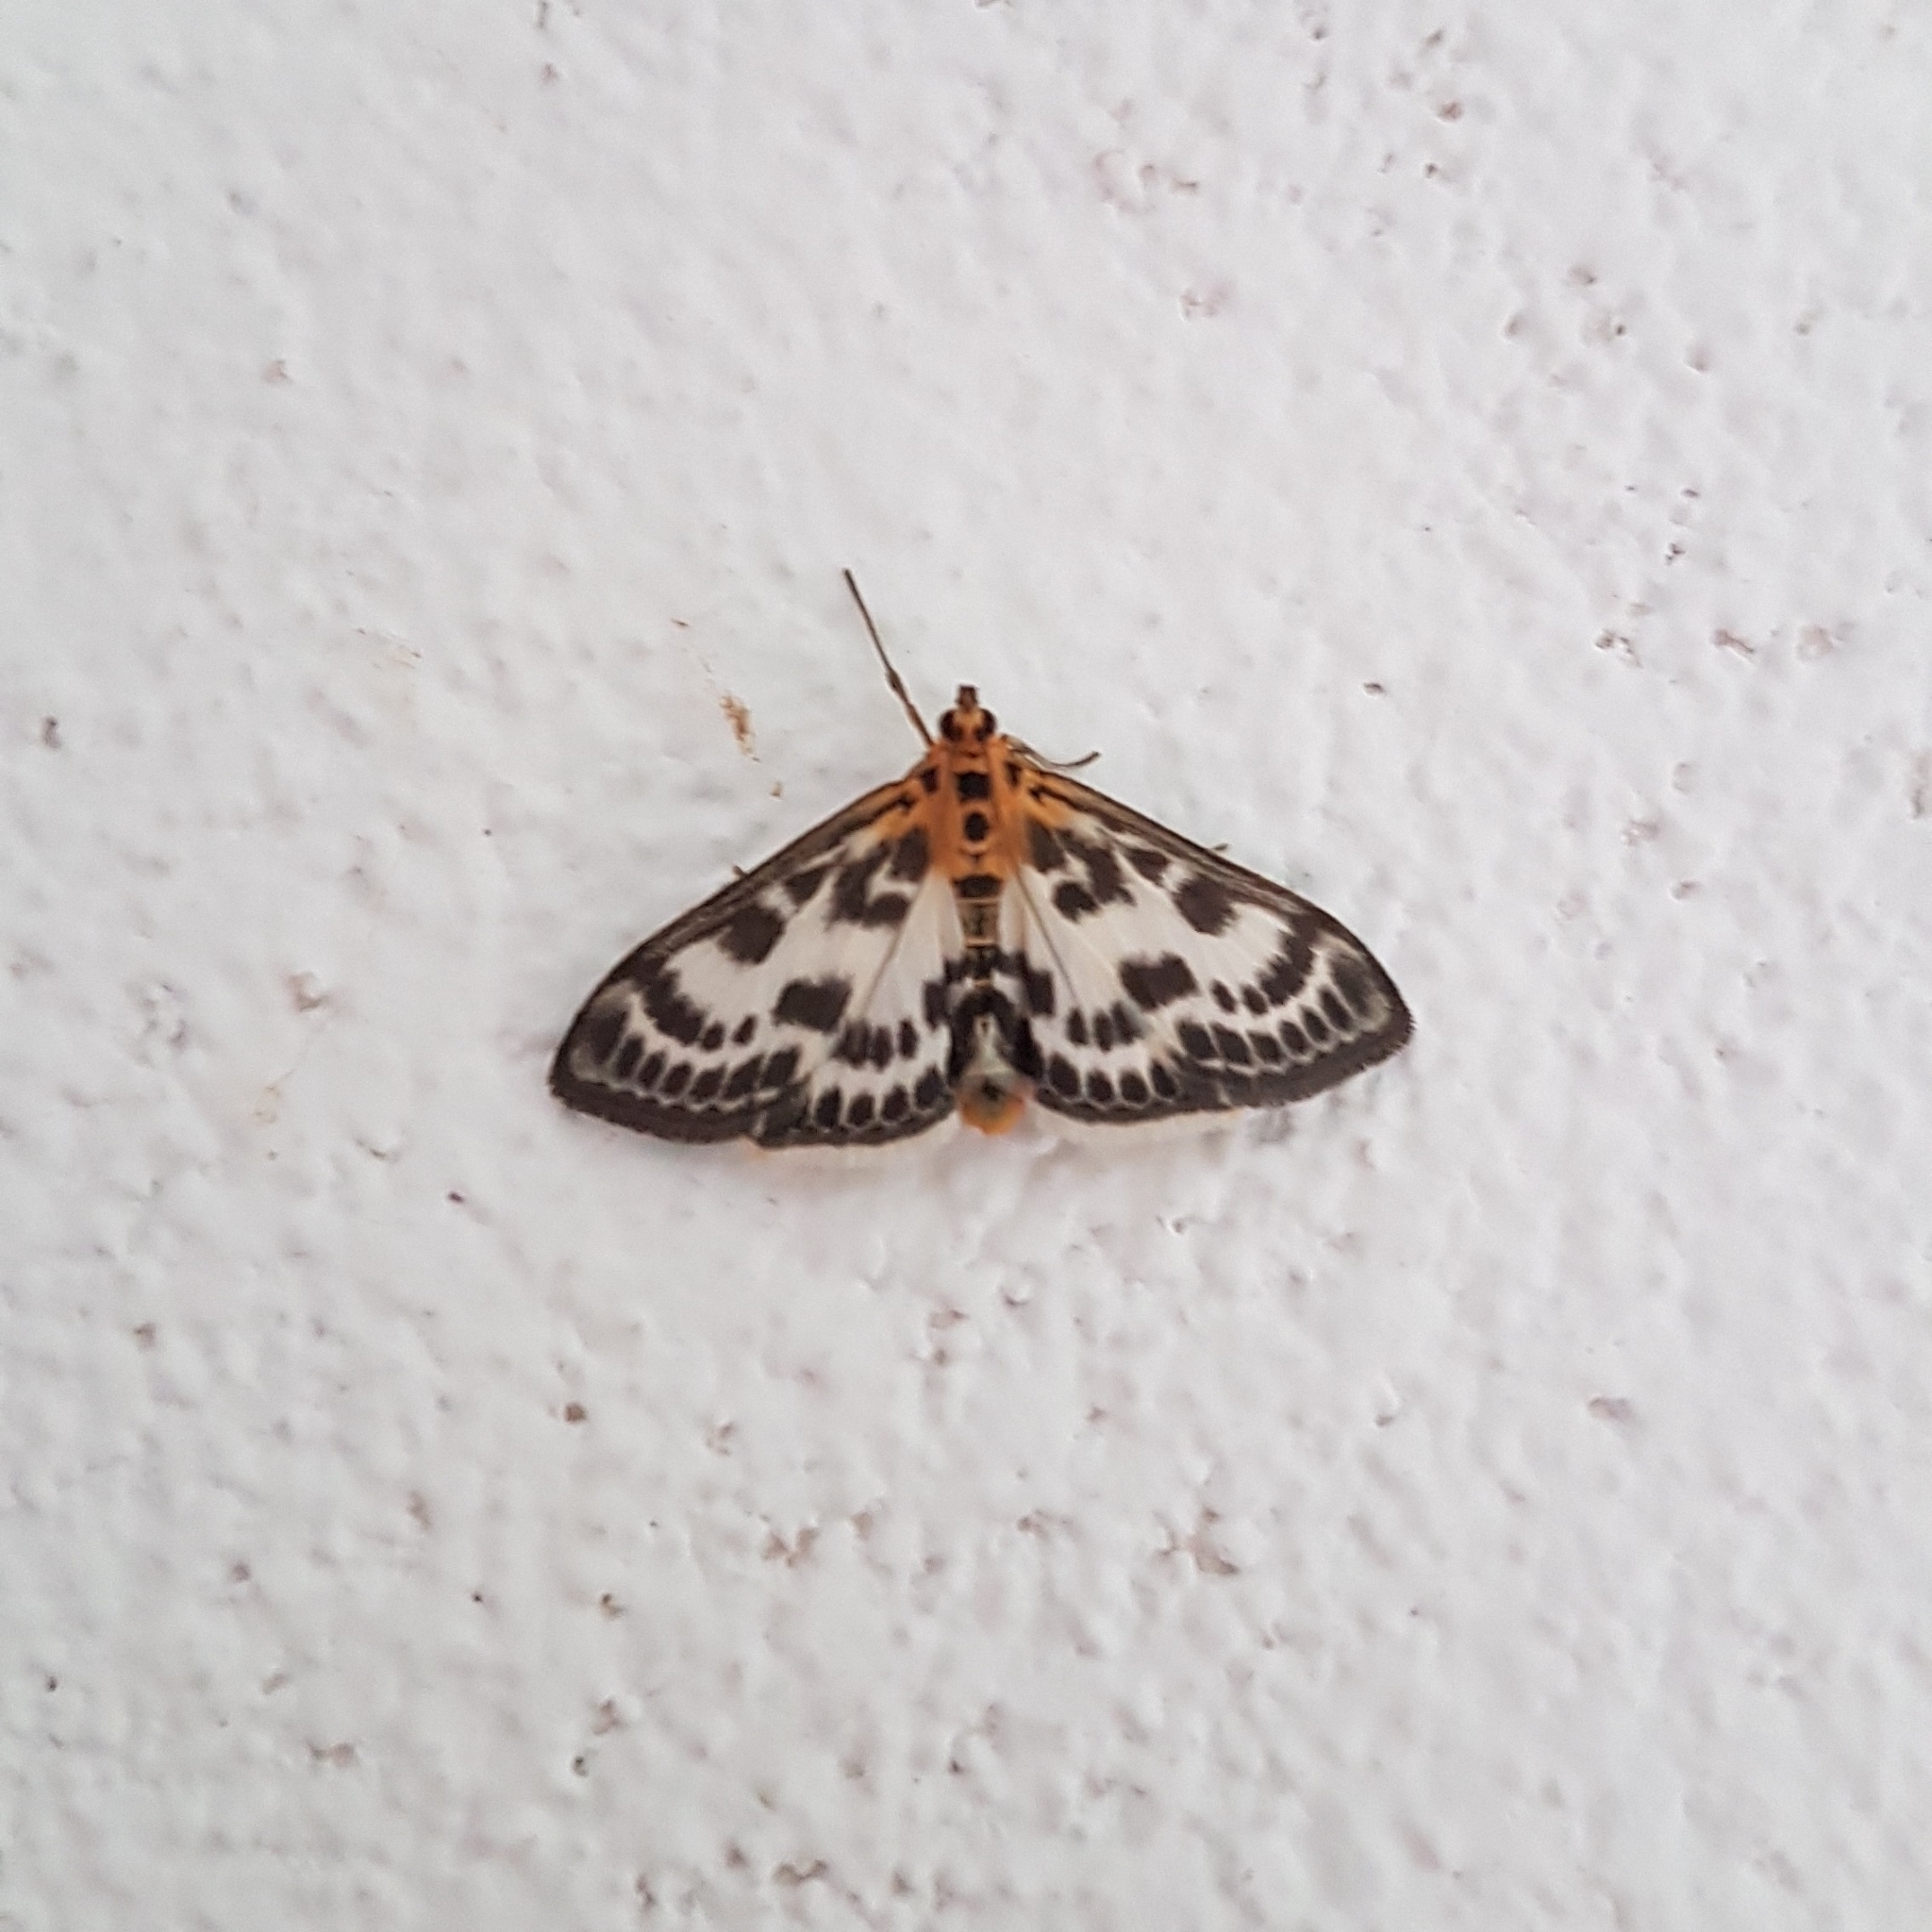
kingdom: Animalia
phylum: Arthropoda
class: Insecta
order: Lepidoptera
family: Crambidae
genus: Anania
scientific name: Anania hortulata
